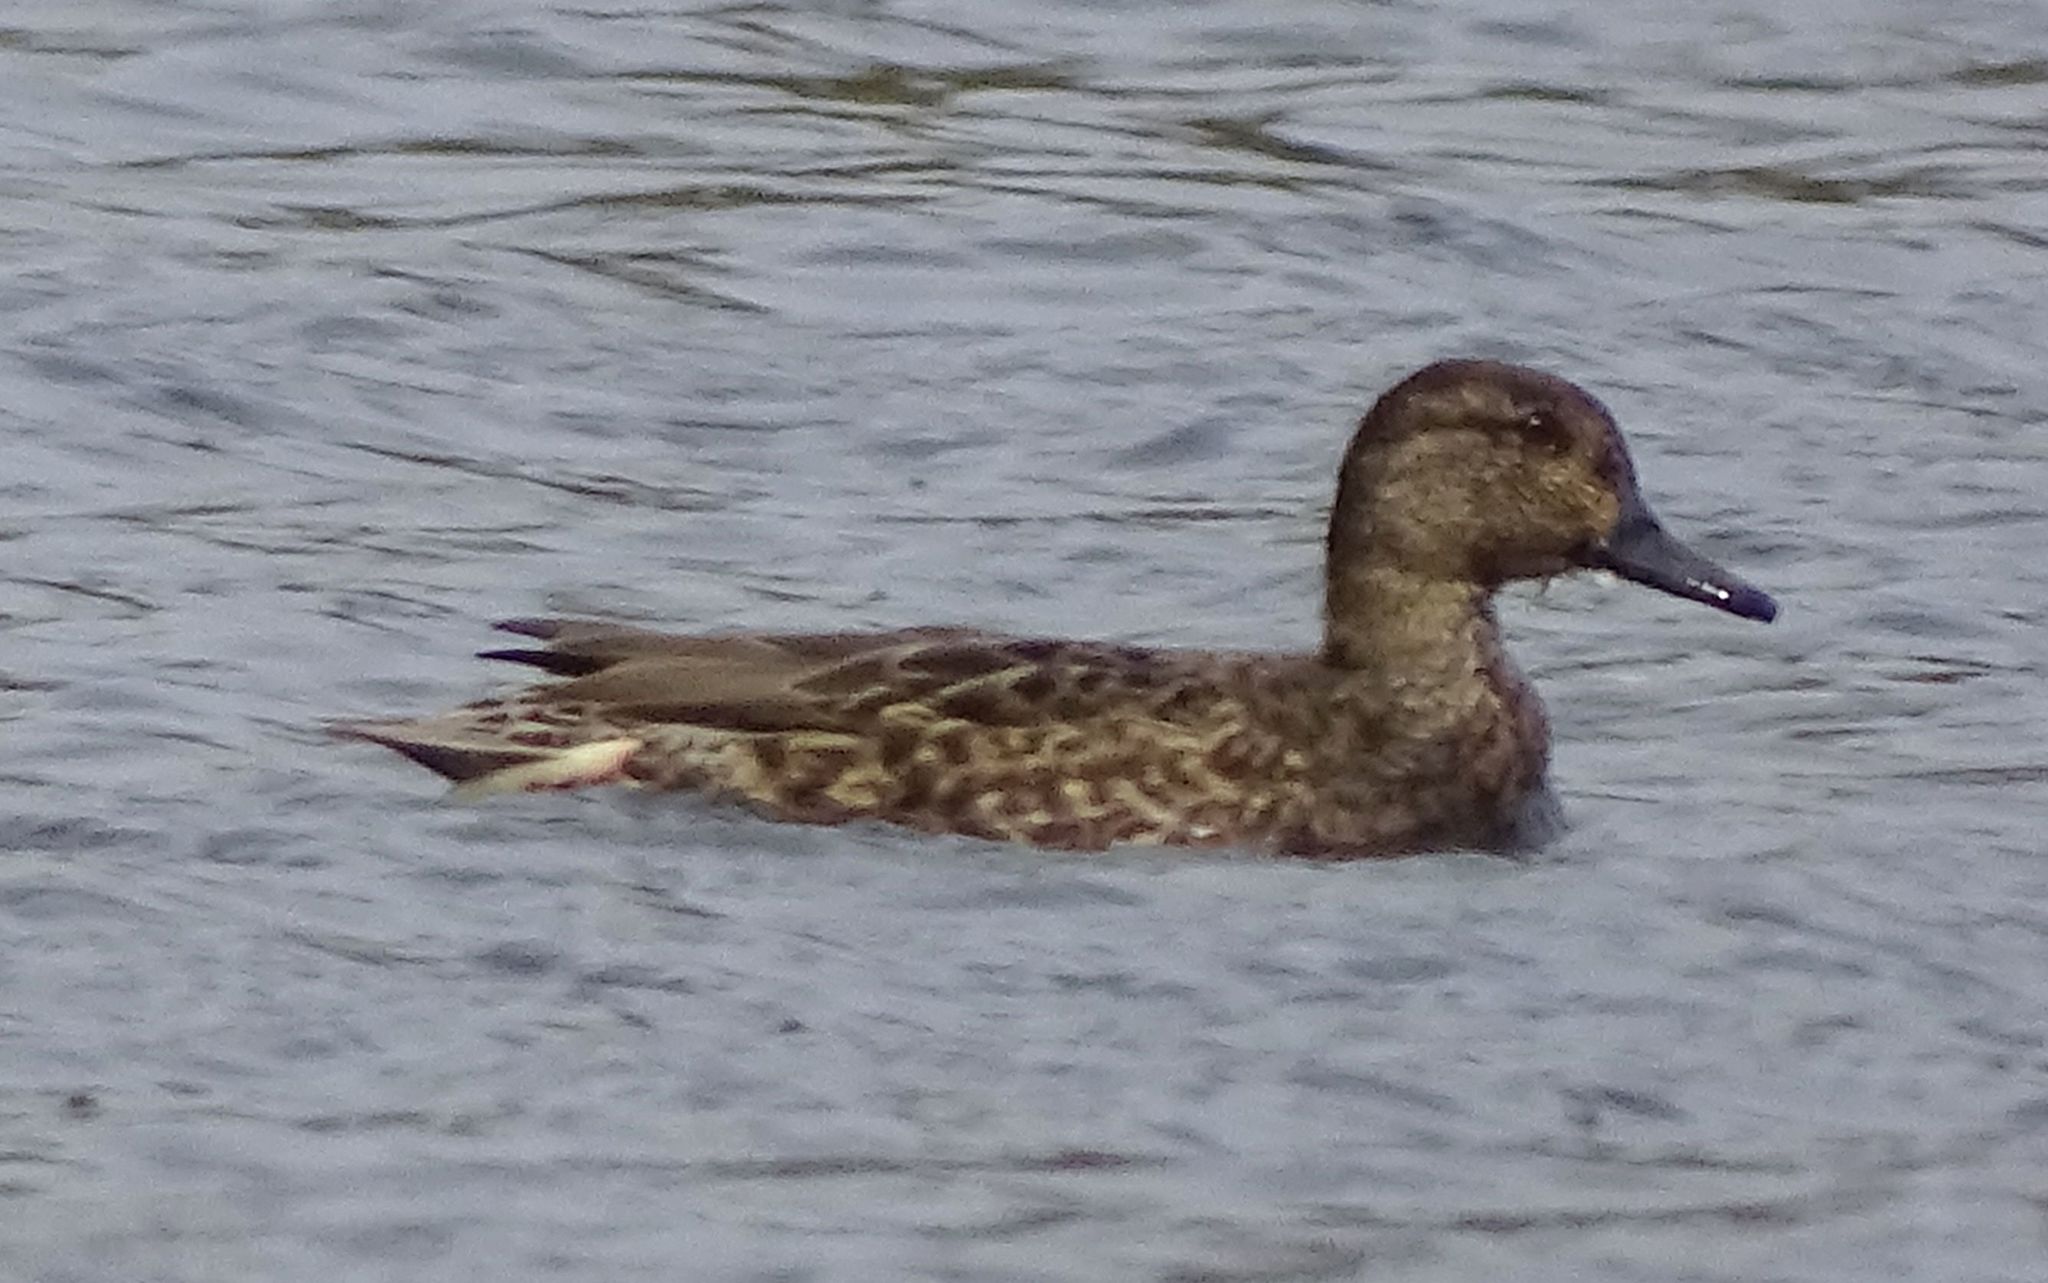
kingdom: Animalia
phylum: Chordata
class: Aves
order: Anseriformes
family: Anatidae
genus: Anas
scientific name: Anas crecca
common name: Eurasian teal
